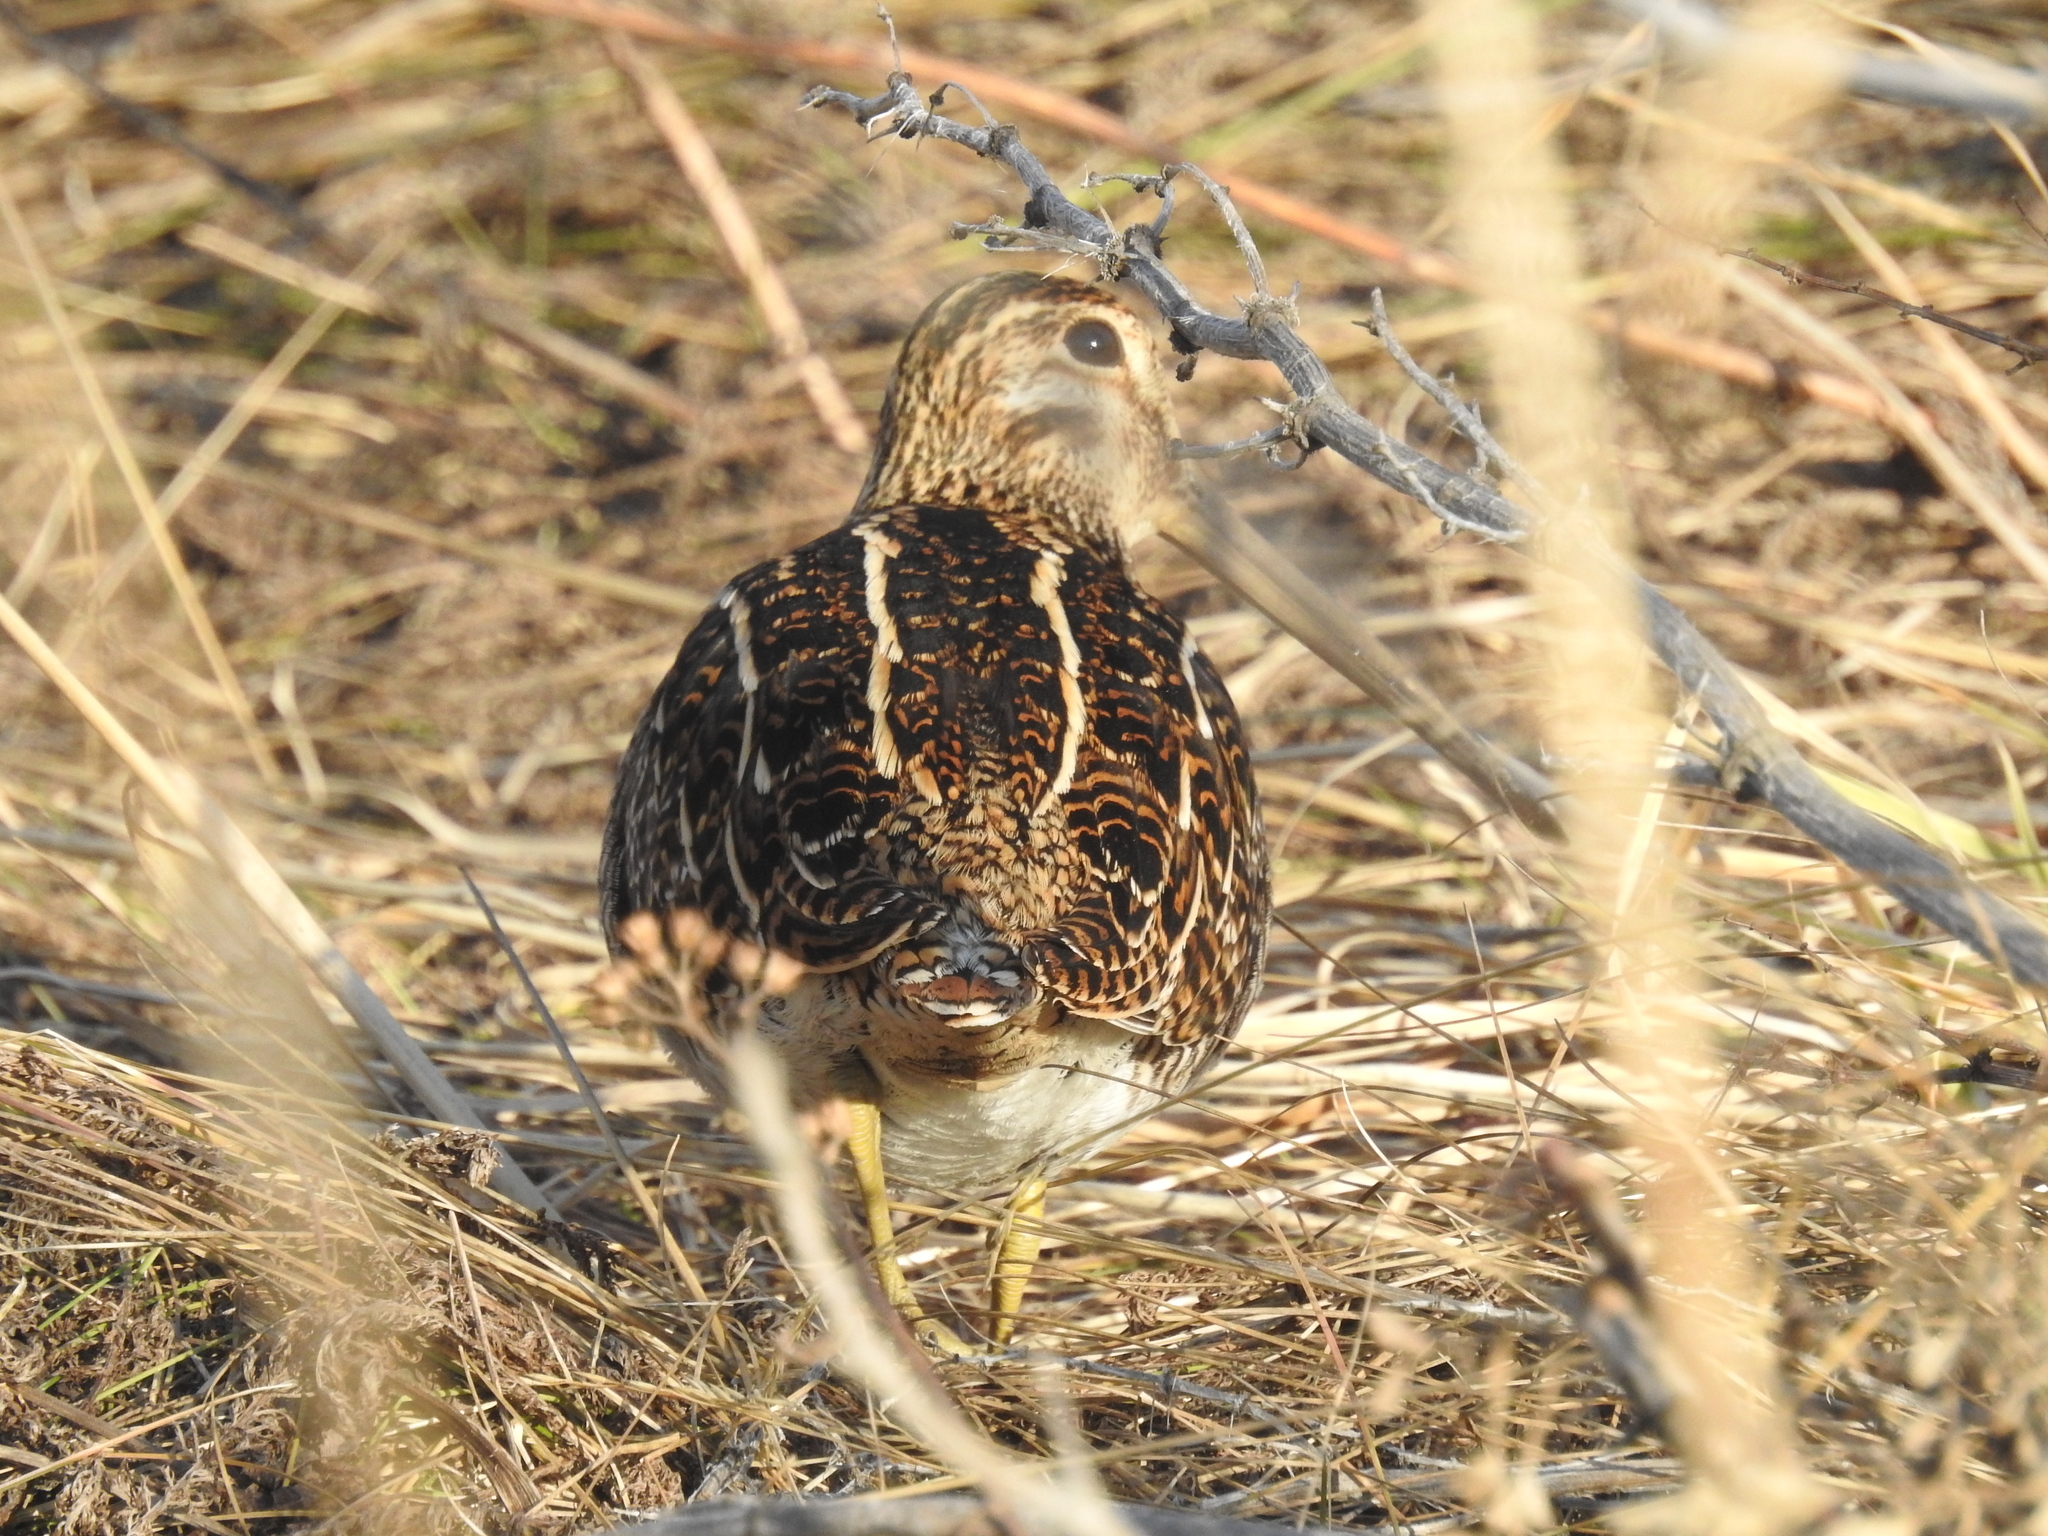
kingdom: Animalia
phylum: Chordata
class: Aves
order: Charadriiformes
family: Scolopacidae
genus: Gallinago
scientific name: Gallinago magellanica
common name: Magellanic snipe
